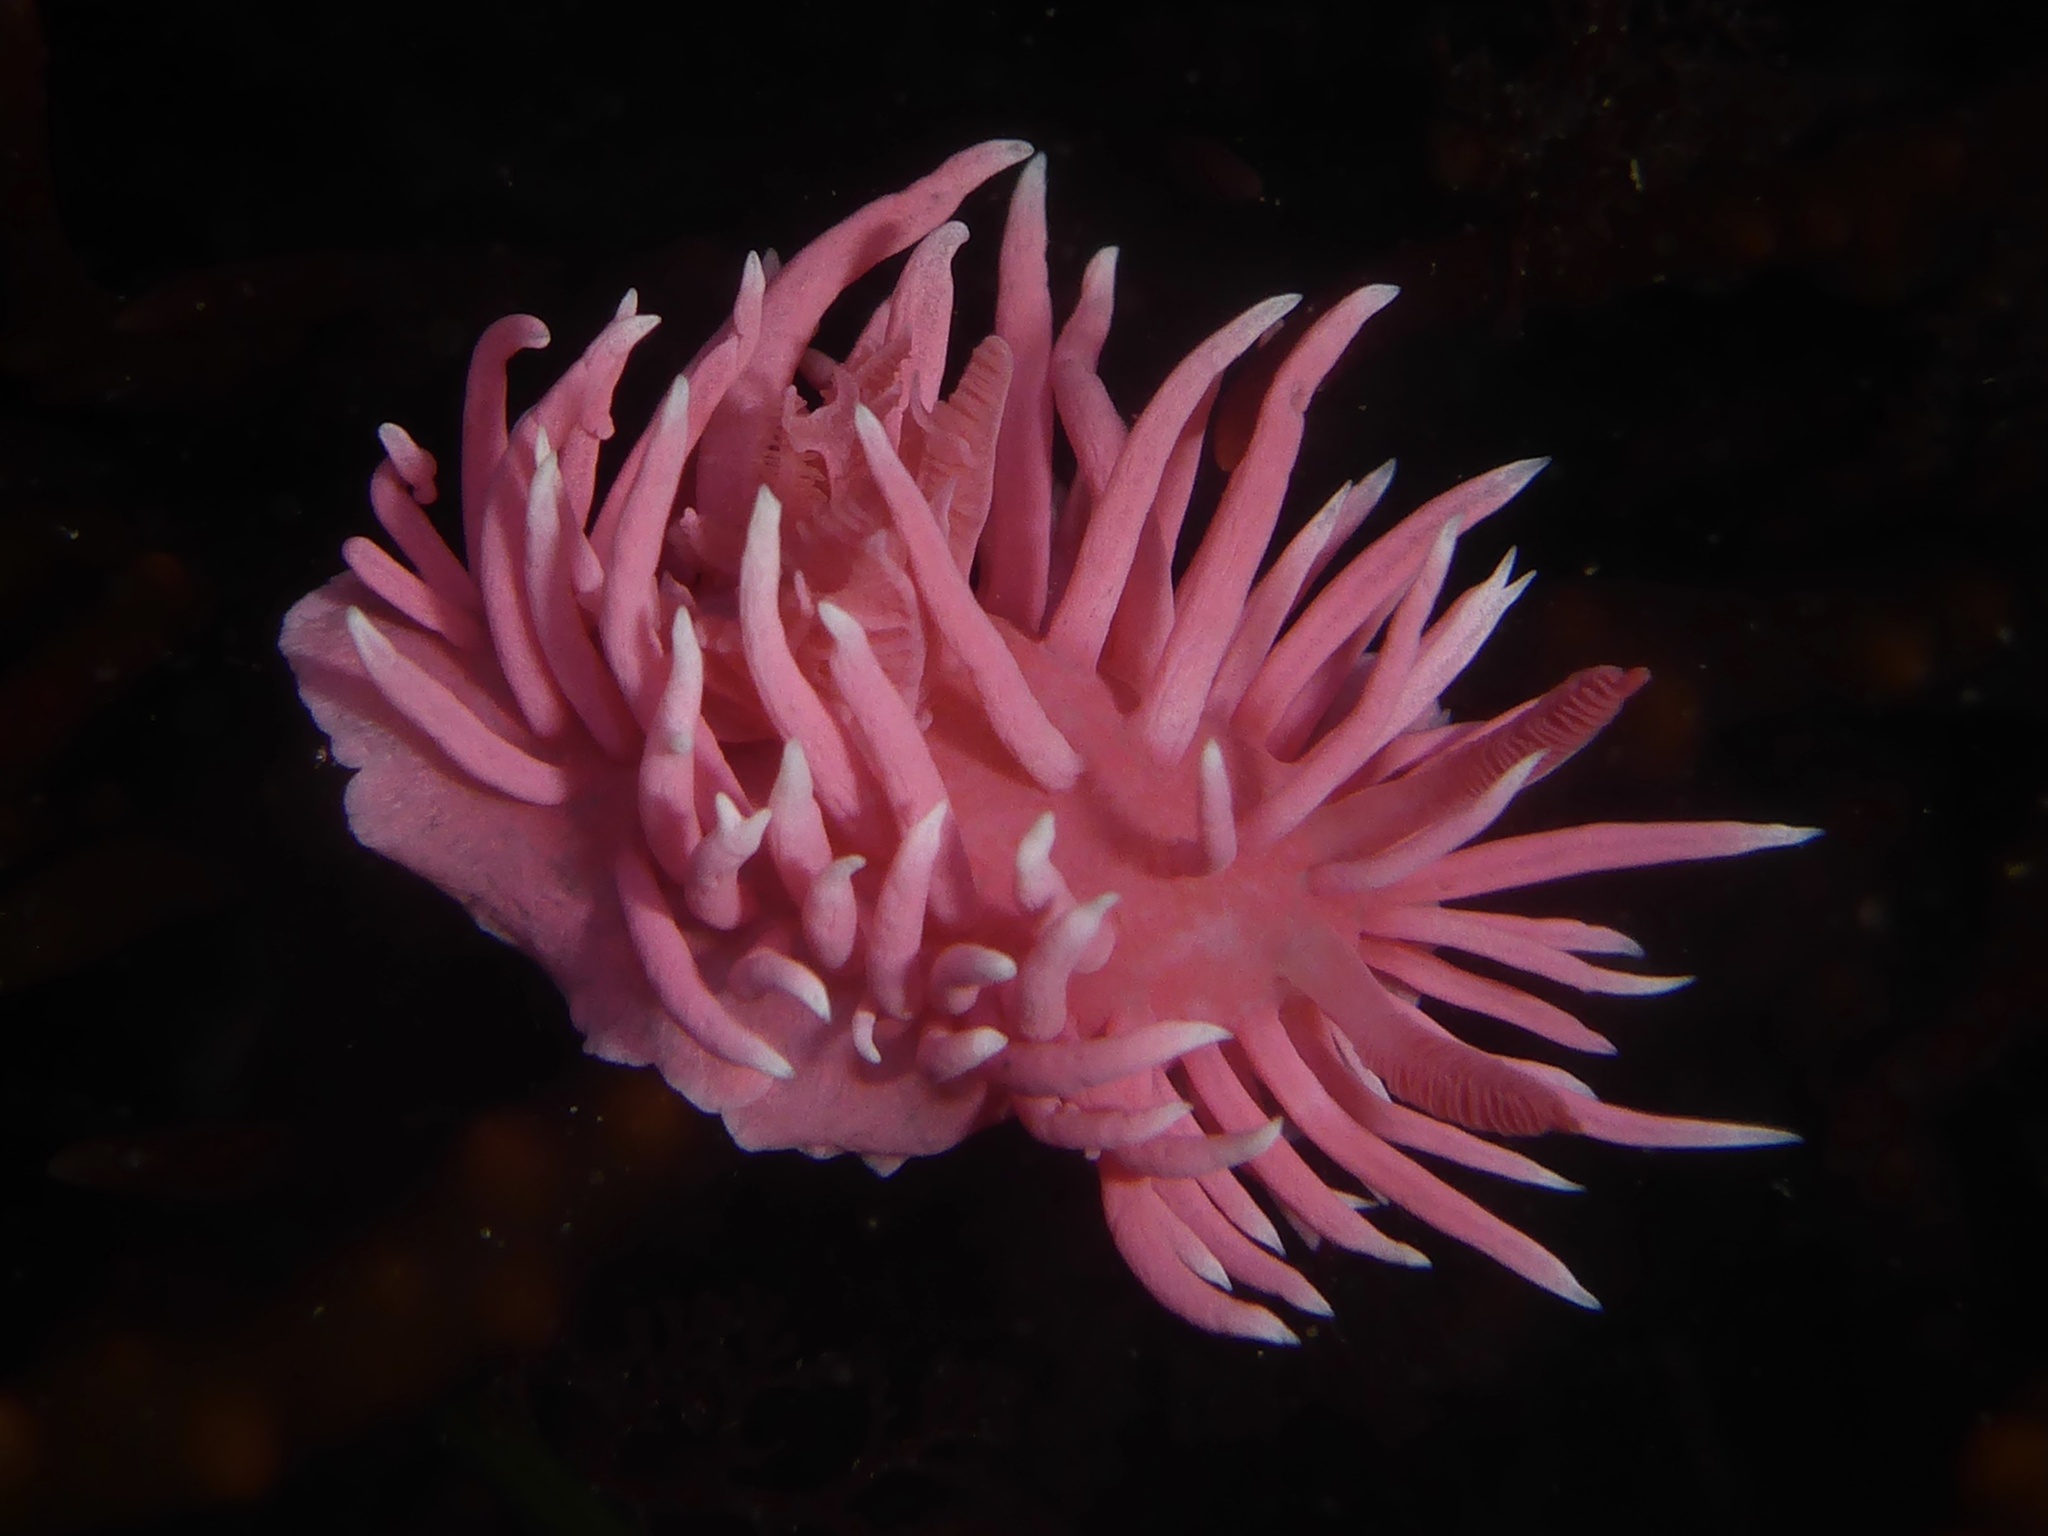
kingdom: Animalia
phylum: Mollusca
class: Gastropoda
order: Nudibranchia
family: Goniodorididae
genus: Okenia
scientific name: Okenia
